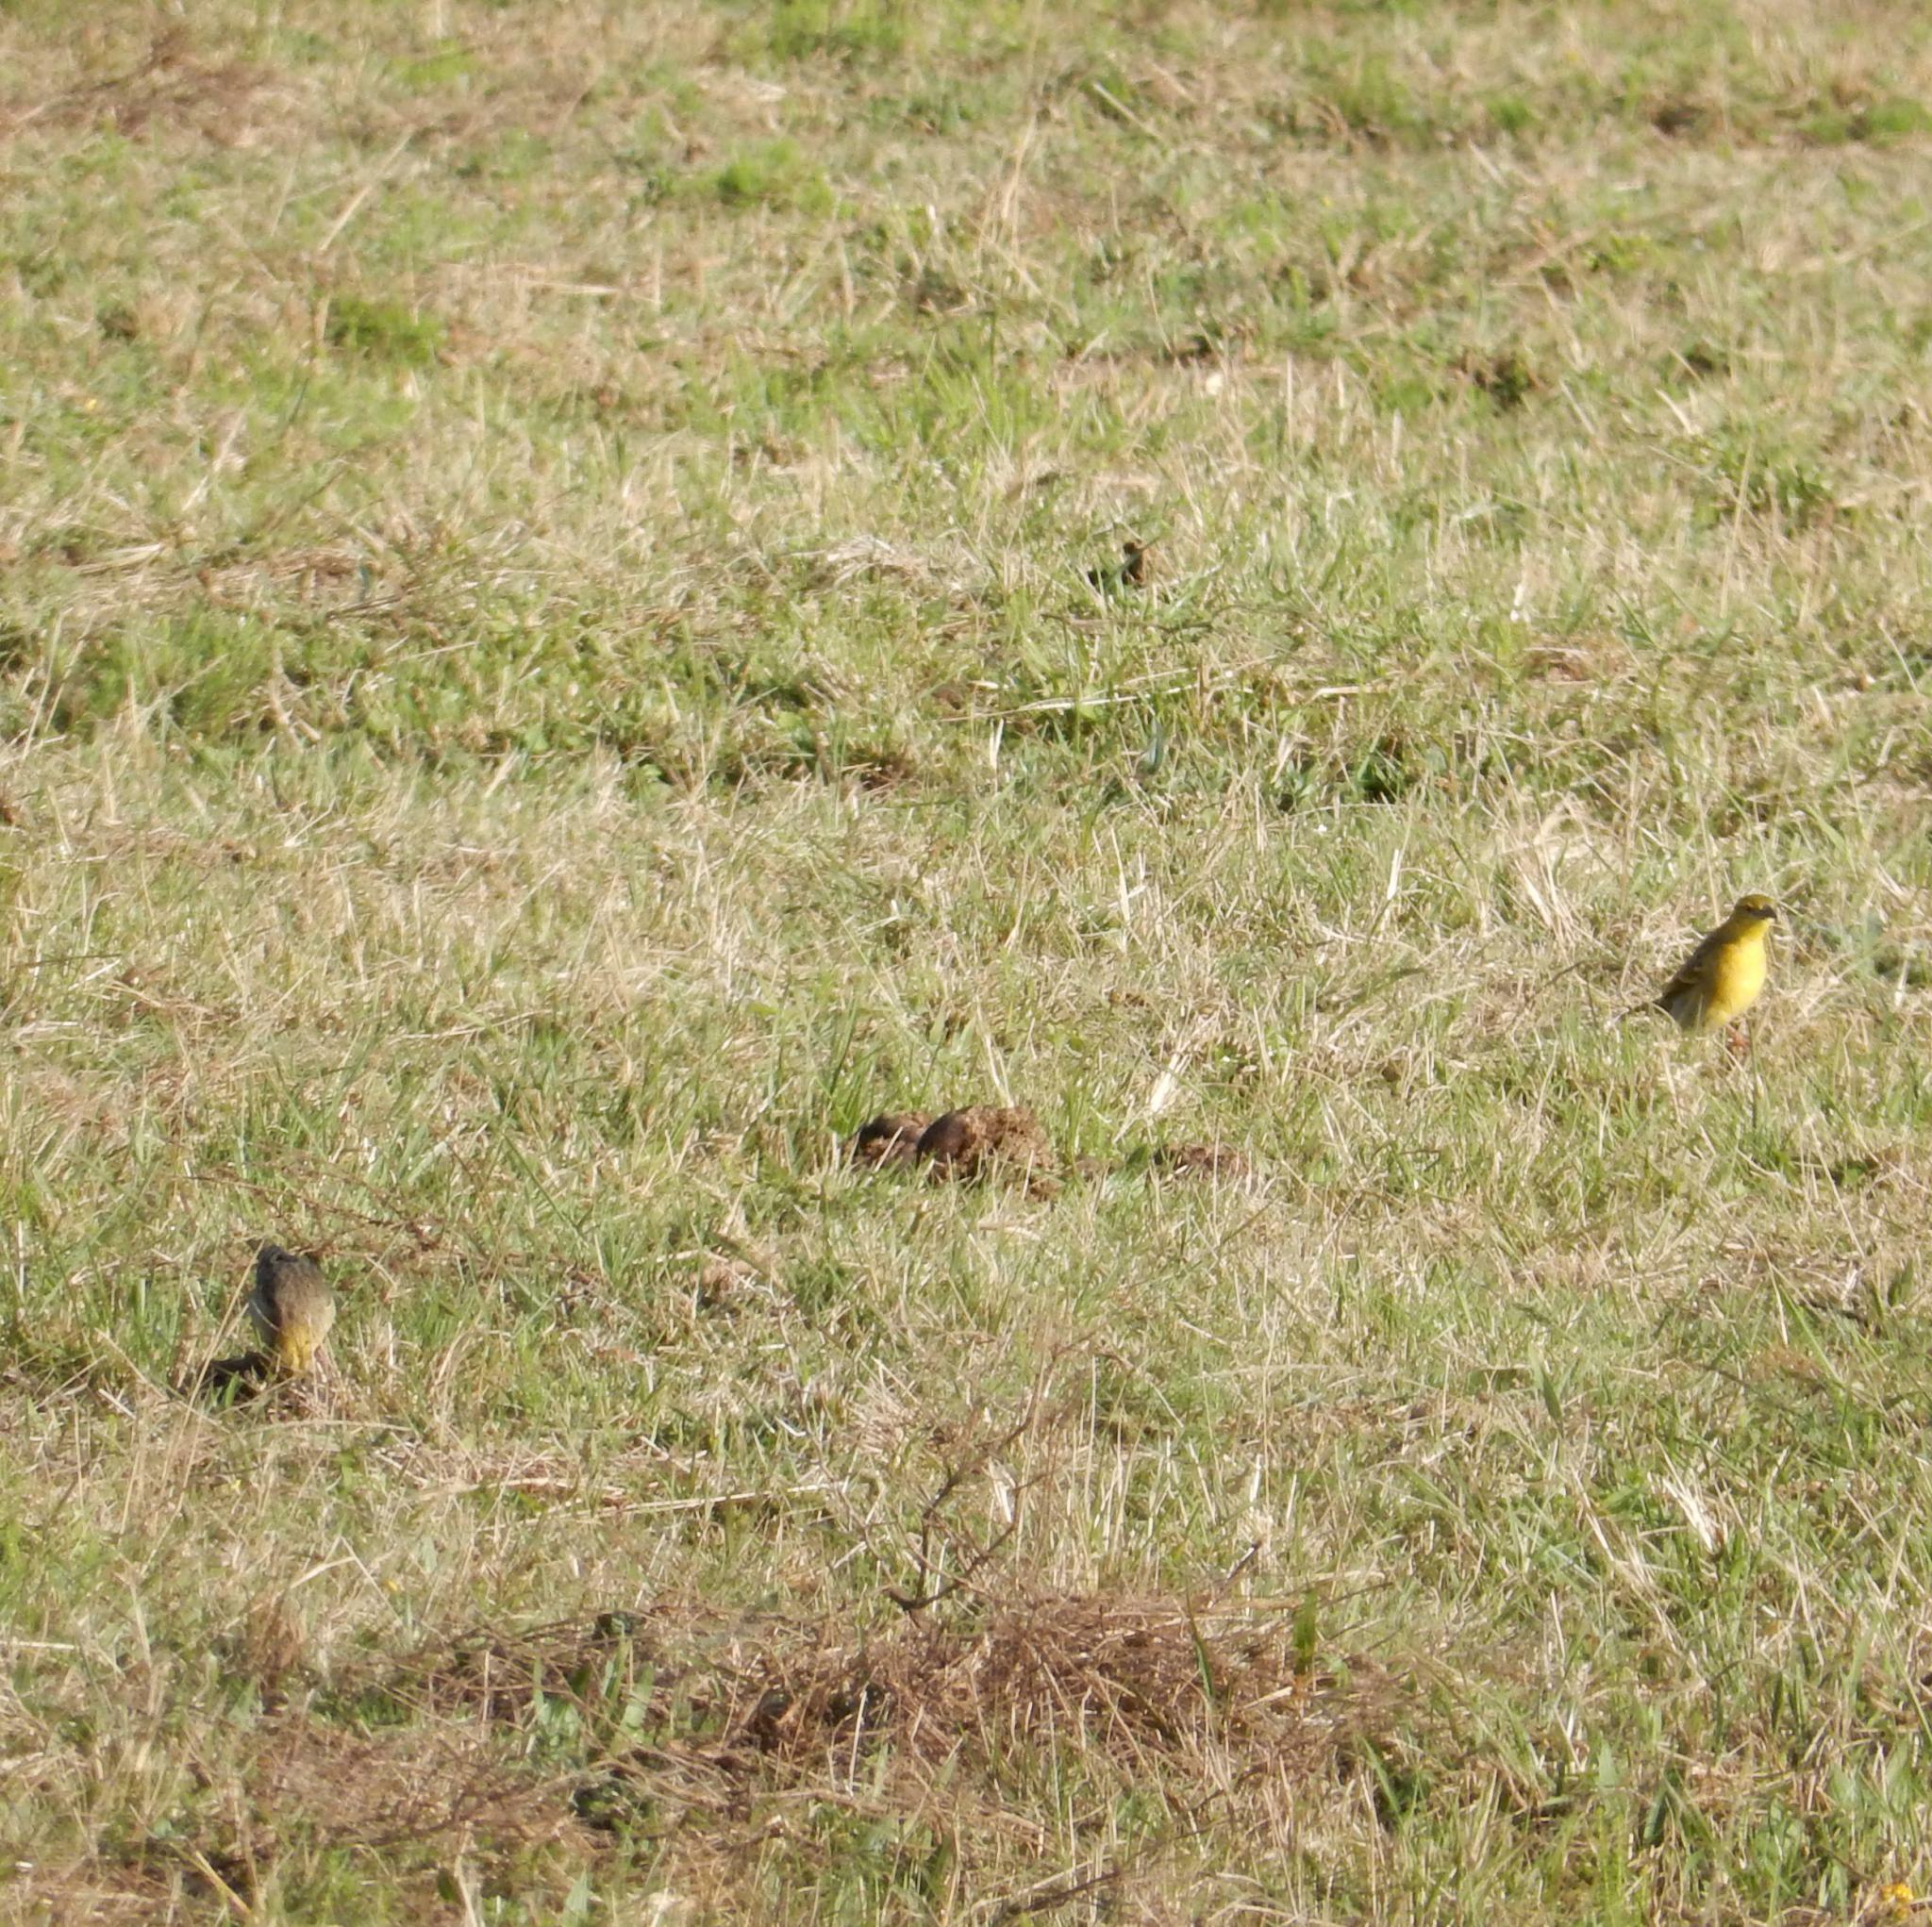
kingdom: Animalia
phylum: Chordata
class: Aves
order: Passeriformes
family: Ploceidae
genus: Ploceus
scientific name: Ploceus cucullatus
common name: Village weaver
